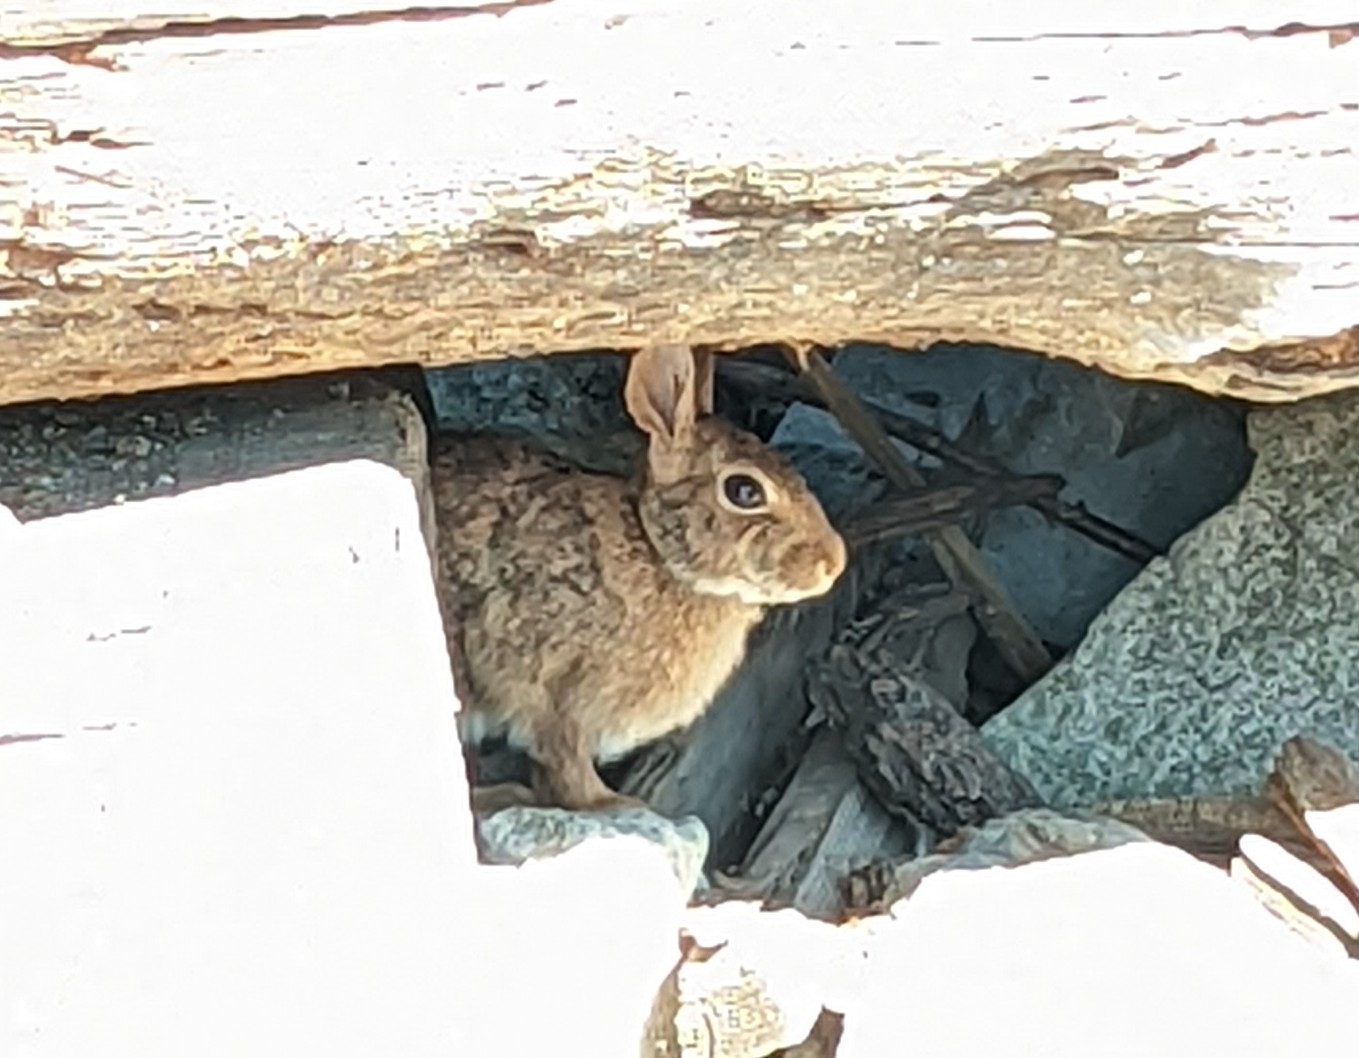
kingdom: Animalia
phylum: Chordata
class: Mammalia
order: Lagomorpha
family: Leporidae
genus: Sylvilagus
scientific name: Sylvilagus floridanus
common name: Eastern cottontail
